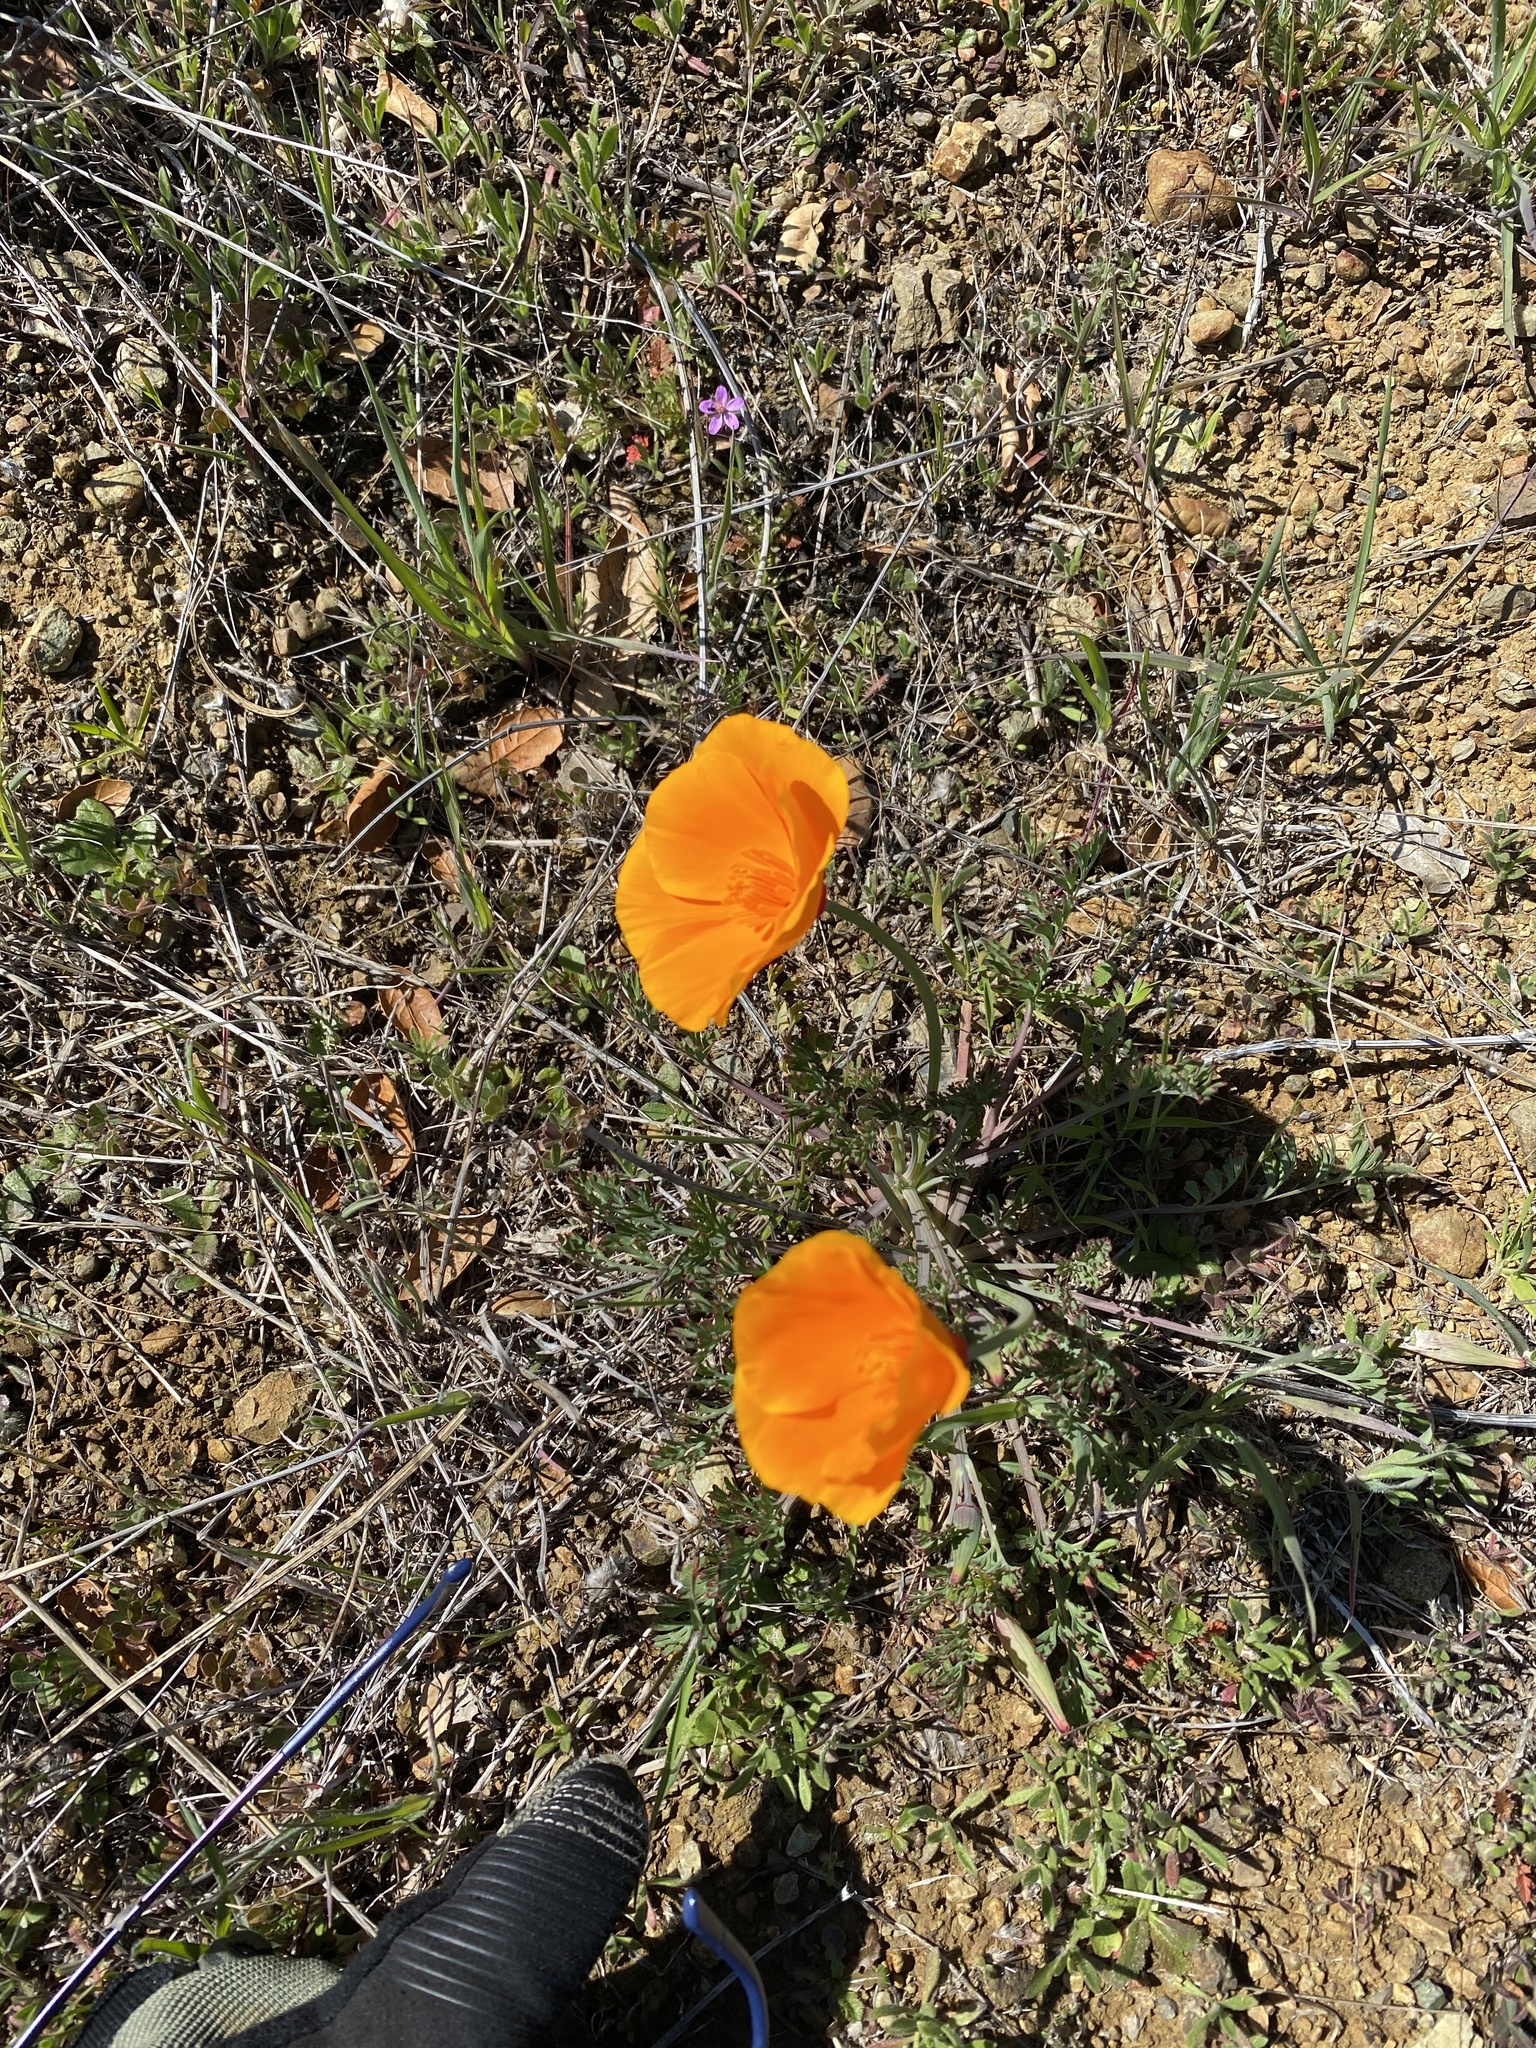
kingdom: Plantae
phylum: Tracheophyta
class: Magnoliopsida
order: Ranunculales
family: Papaveraceae
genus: Eschscholzia
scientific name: Eschscholzia californica
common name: California poppy
